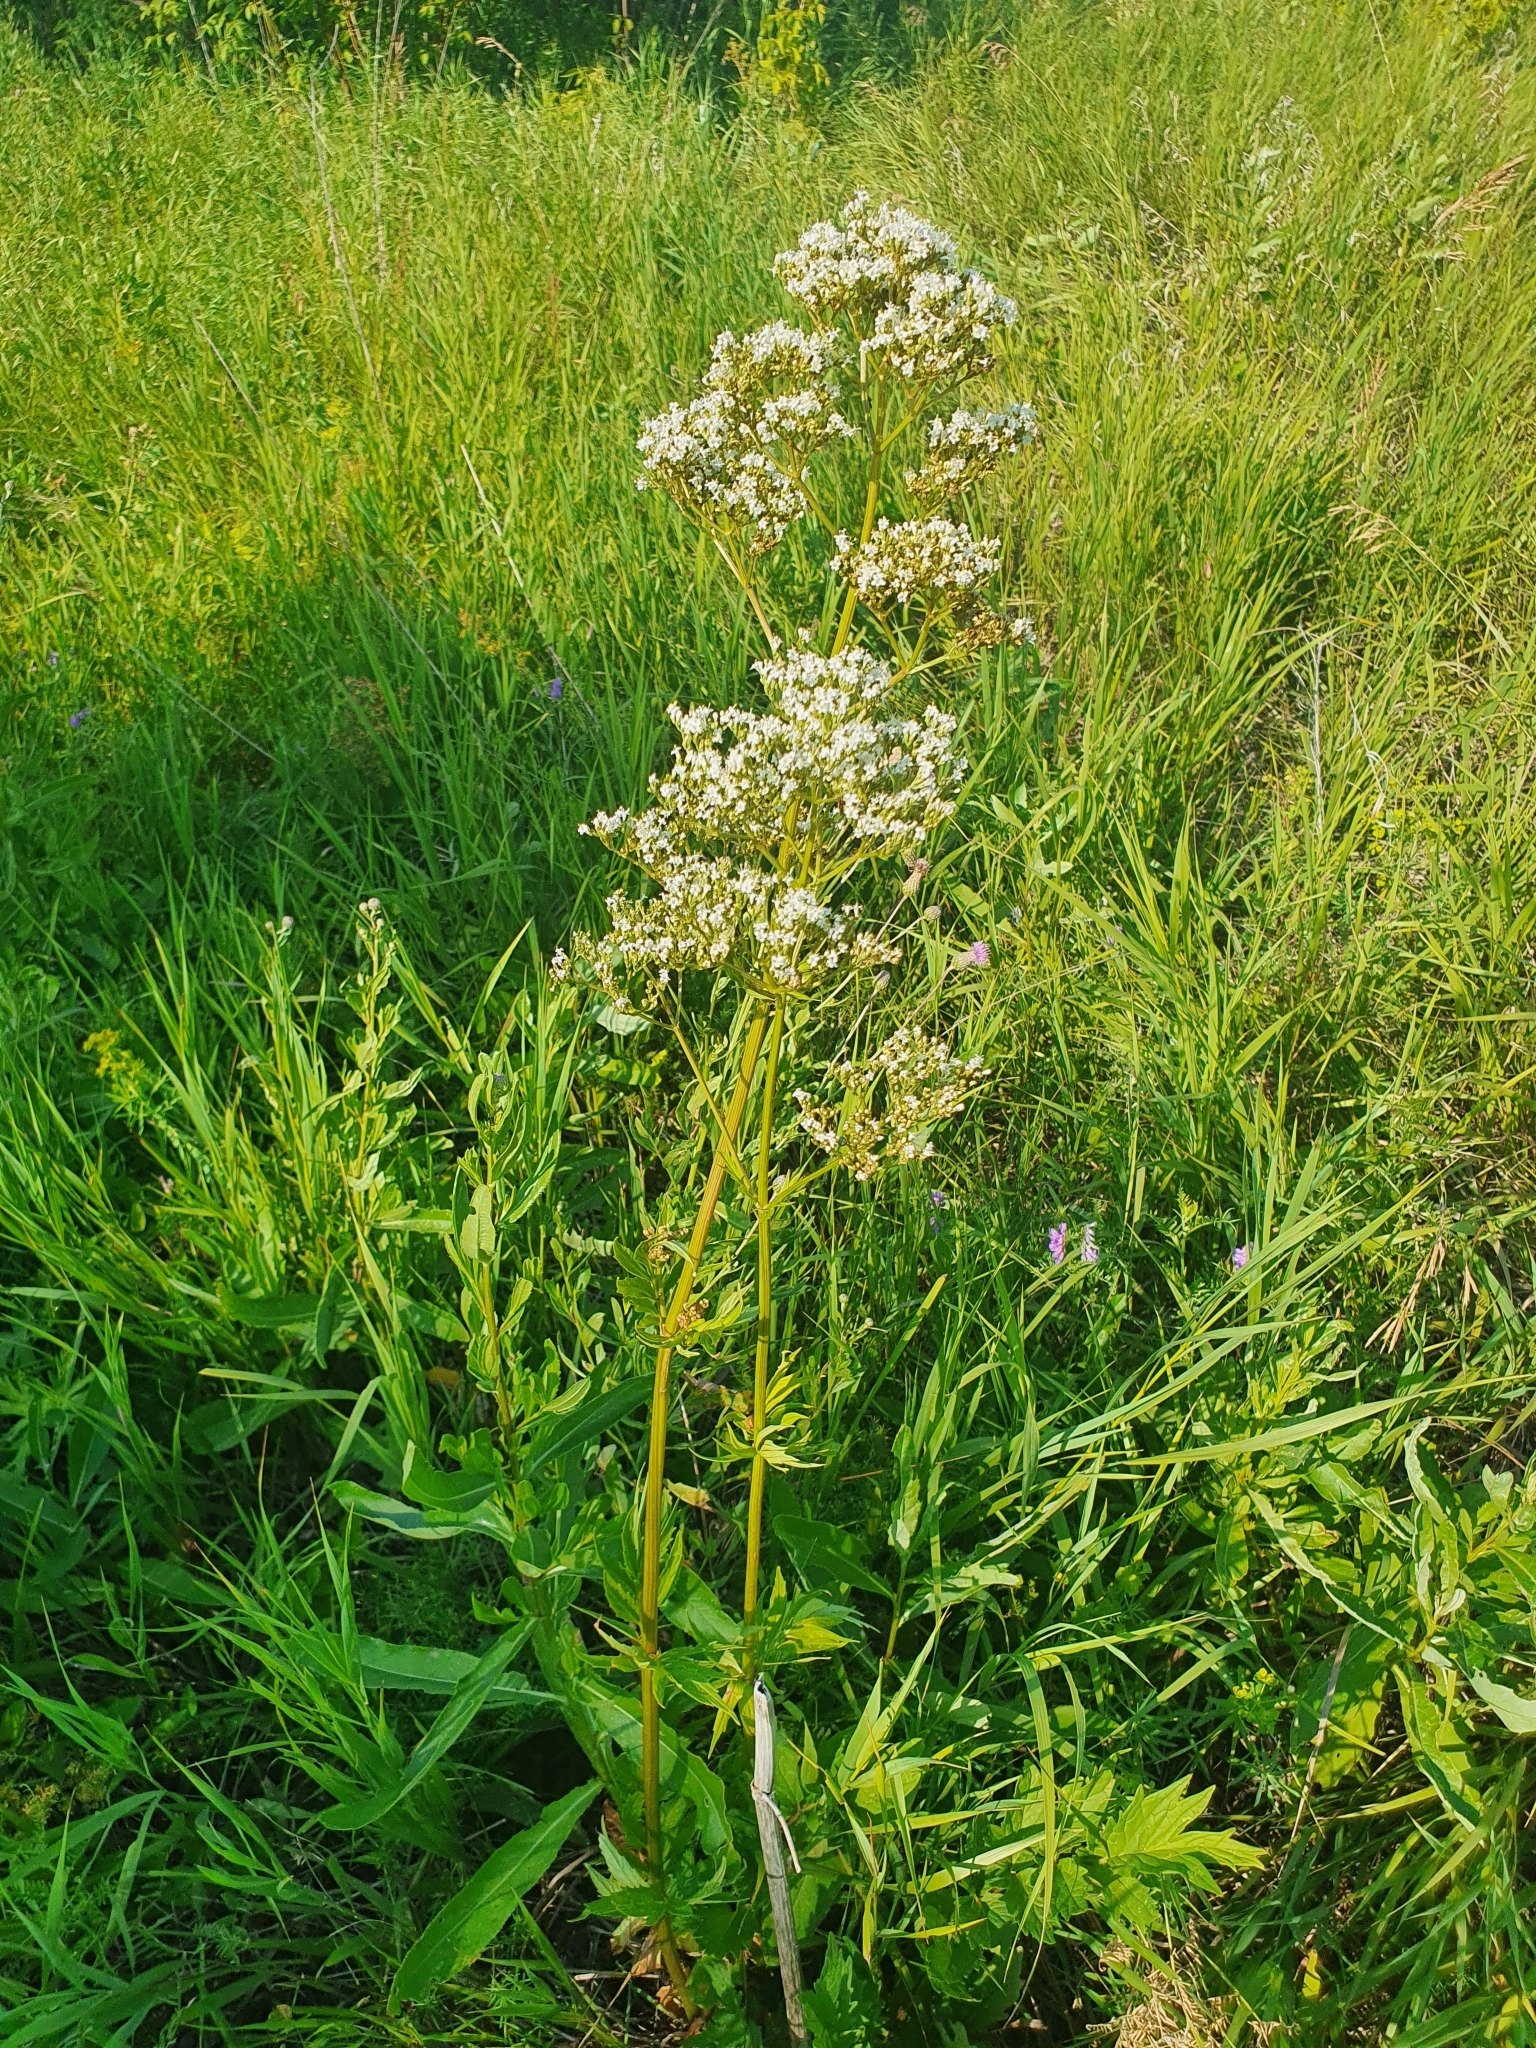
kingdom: Plantae
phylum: Tracheophyta
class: Magnoliopsida
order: Dipsacales
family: Caprifoliaceae
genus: Valeriana
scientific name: Valeriana officinalis
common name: Common valerian
